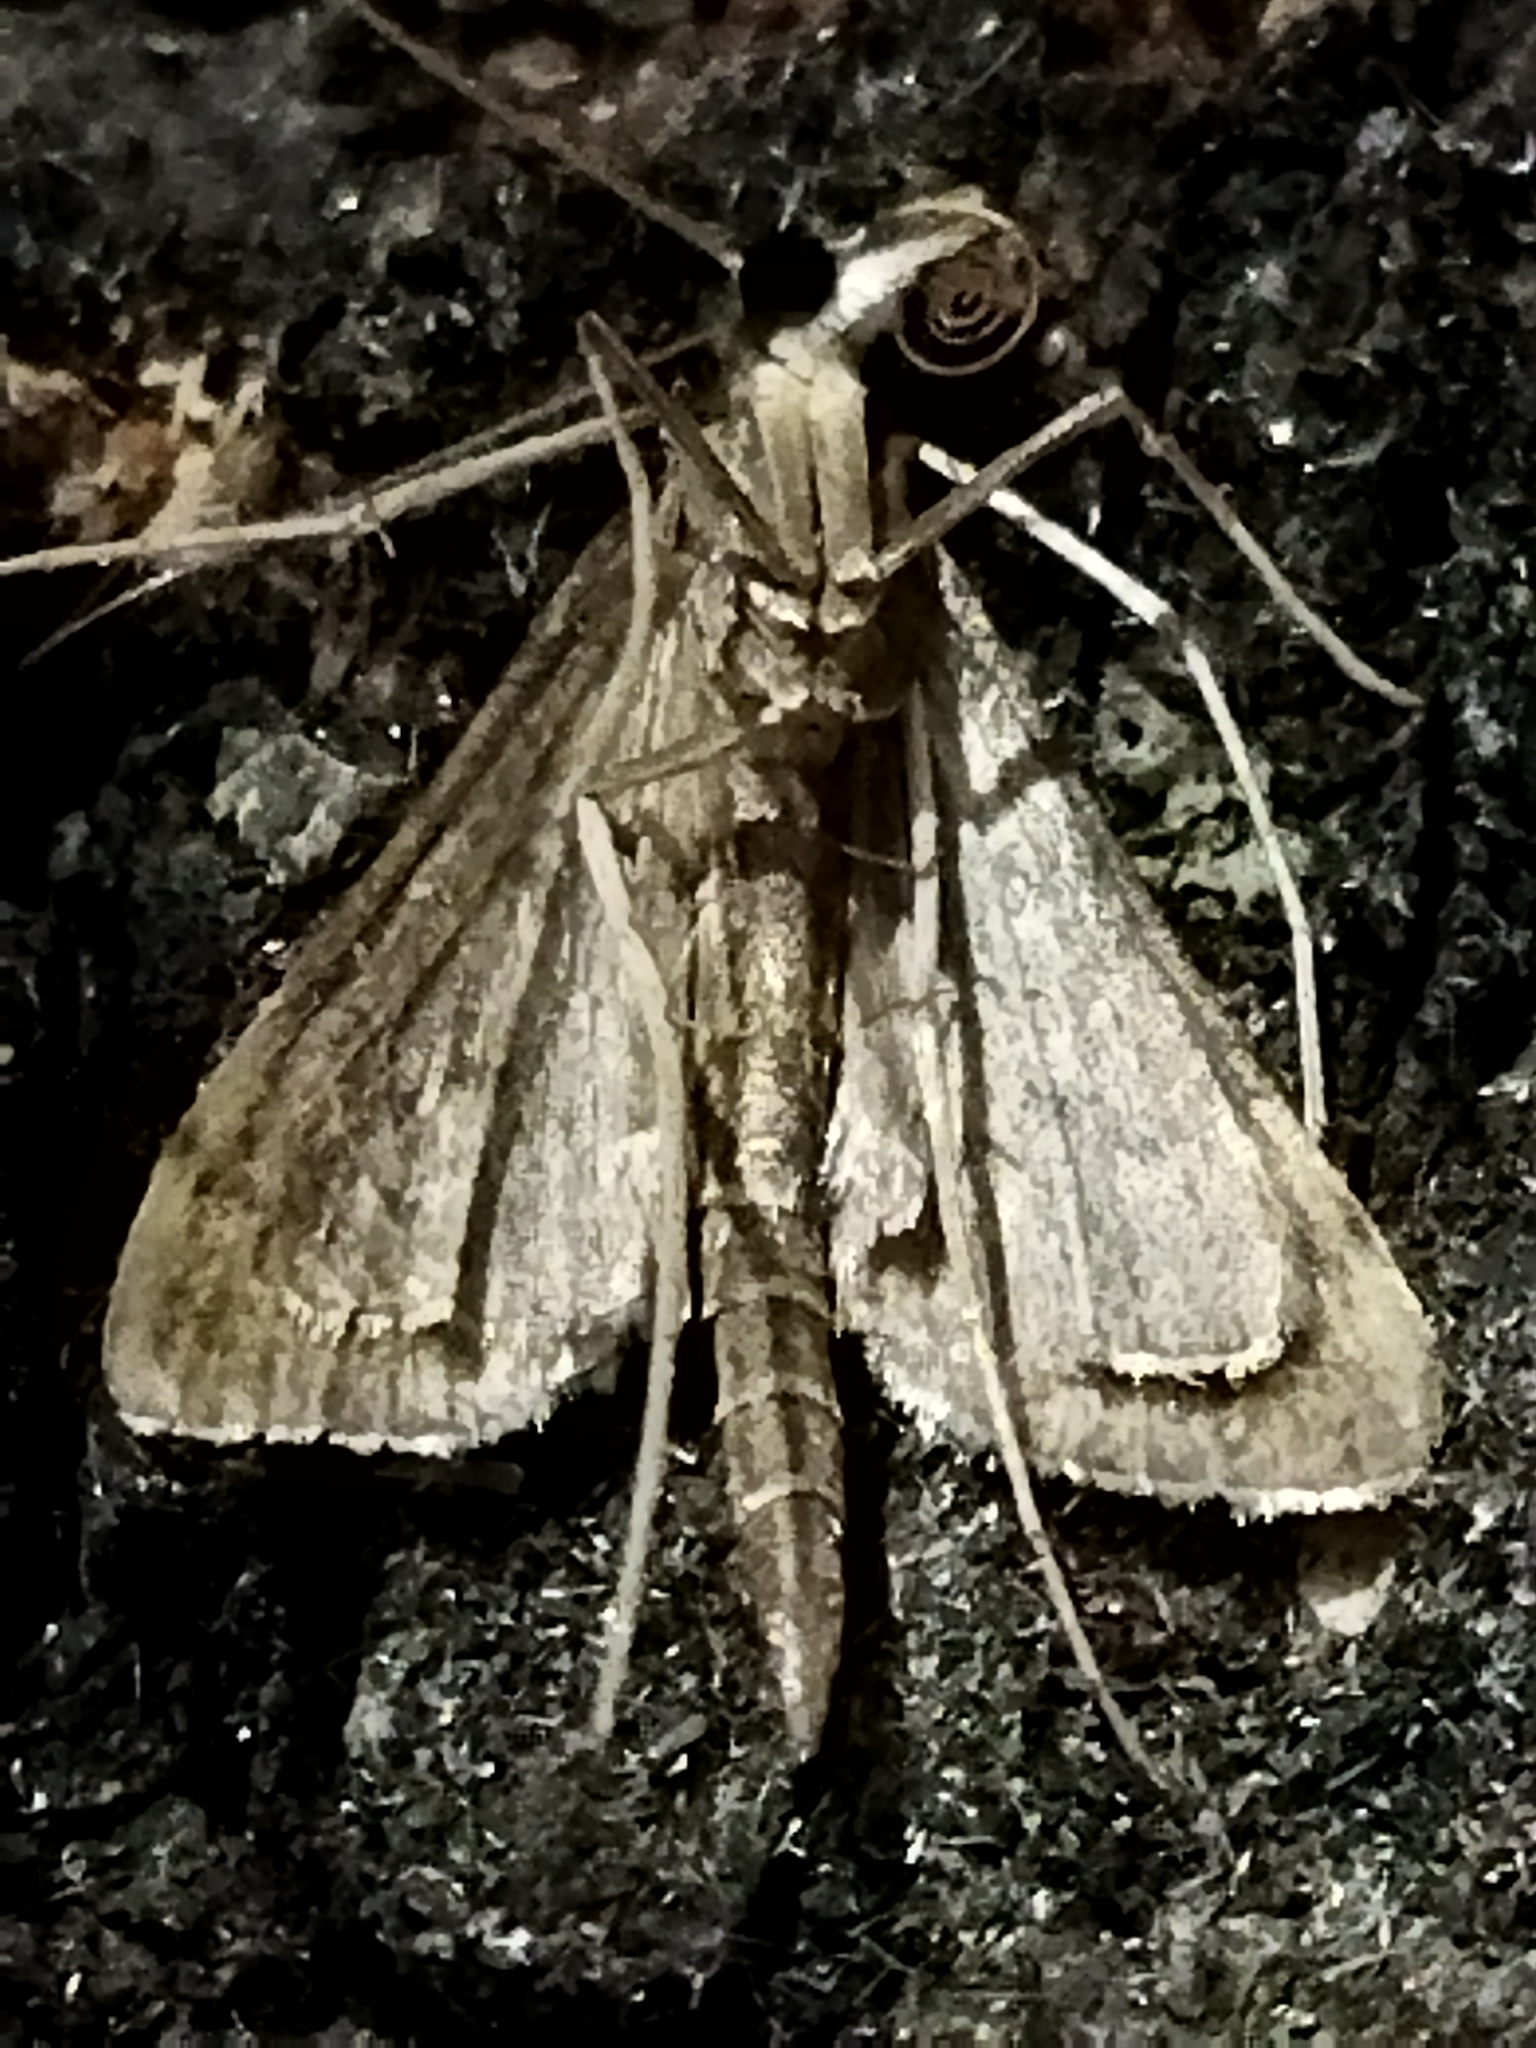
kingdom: Animalia
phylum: Arthropoda
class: Insecta
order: Lepidoptera
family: Crambidae
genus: Stenia
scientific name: Stenia Dolicharthria punctalis
